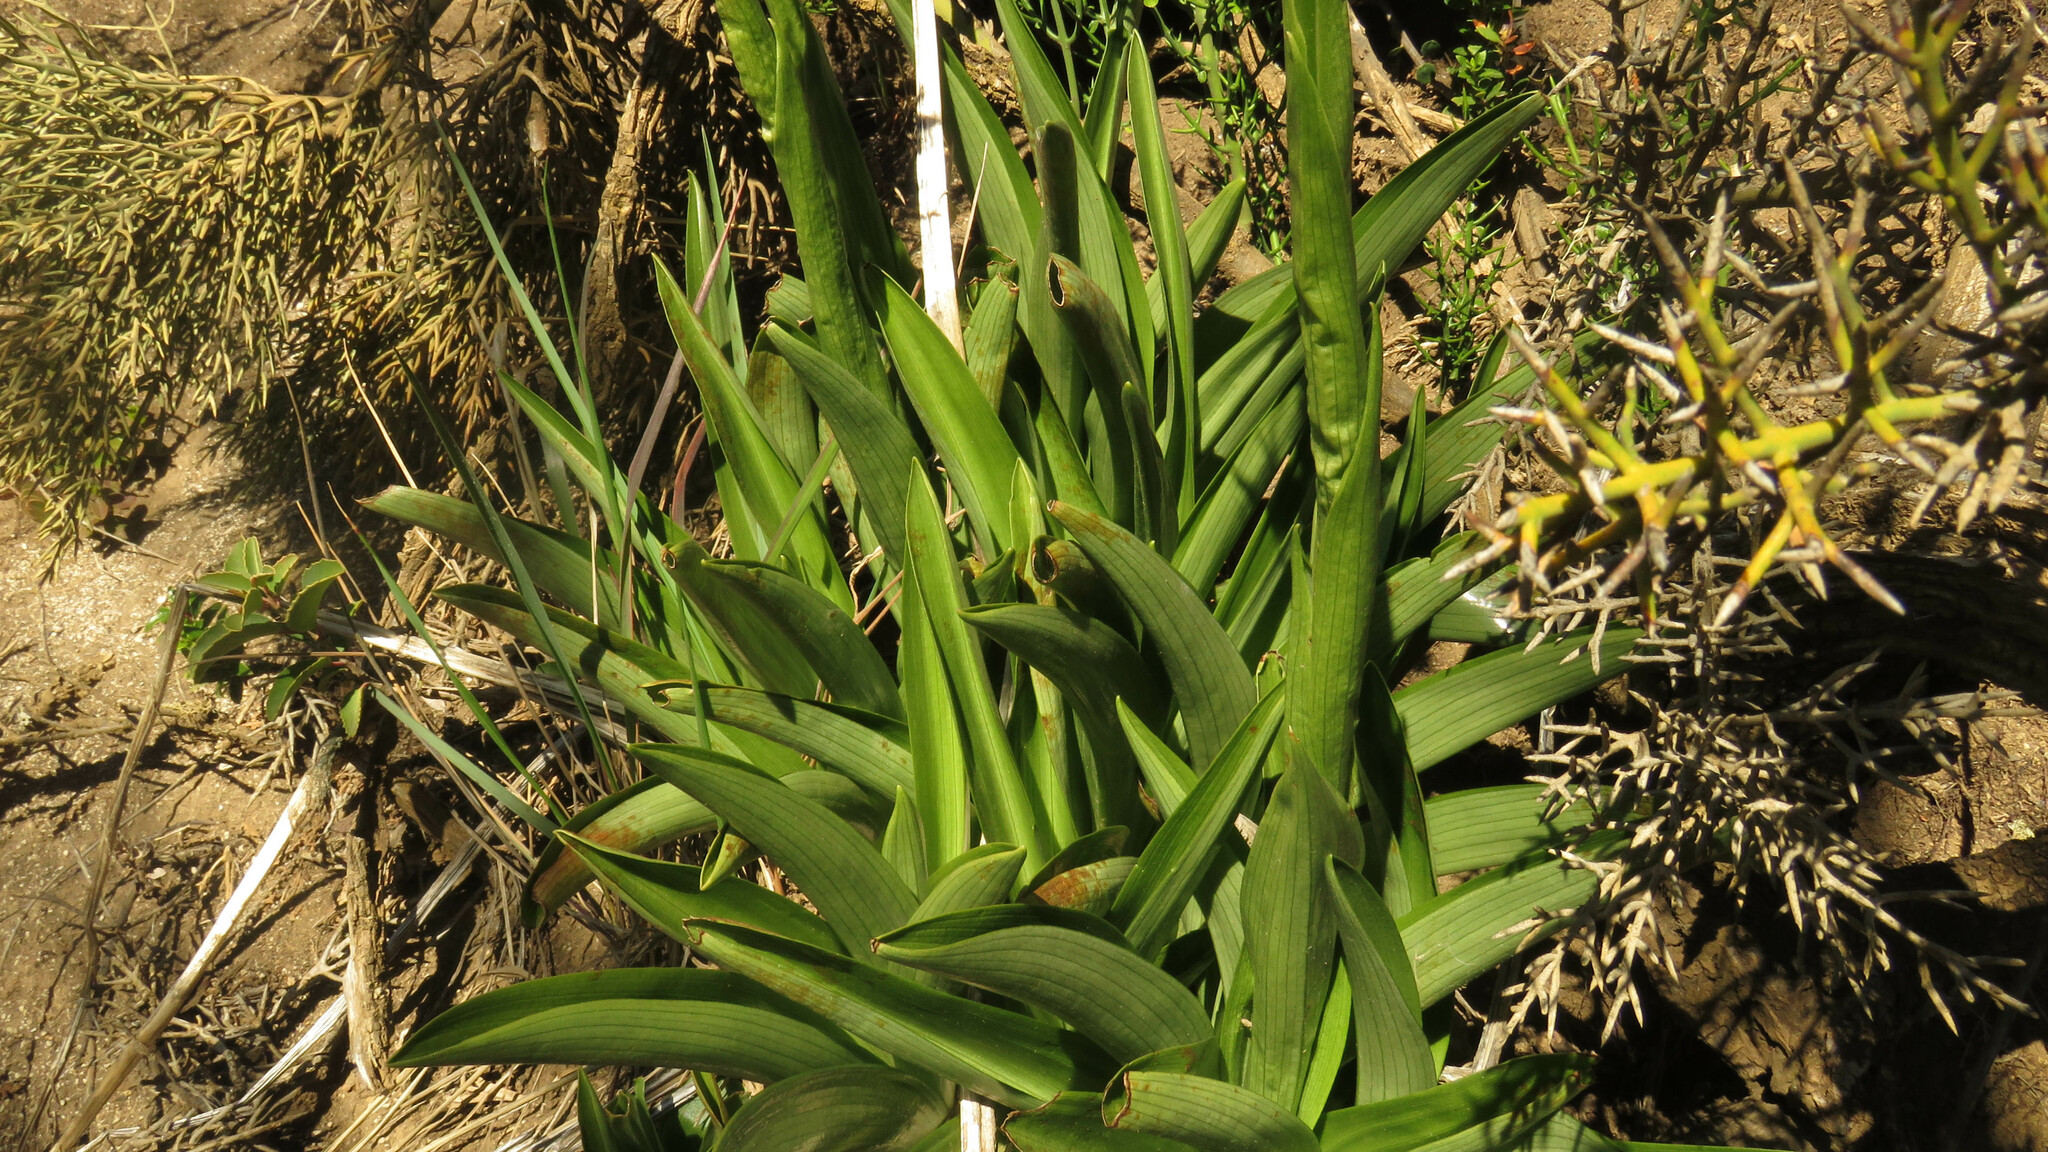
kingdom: Plantae
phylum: Tracheophyta
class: Liliopsida
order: Asparagales
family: Orchidaceae
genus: Gavilea
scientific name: Gavilea odoratissima
